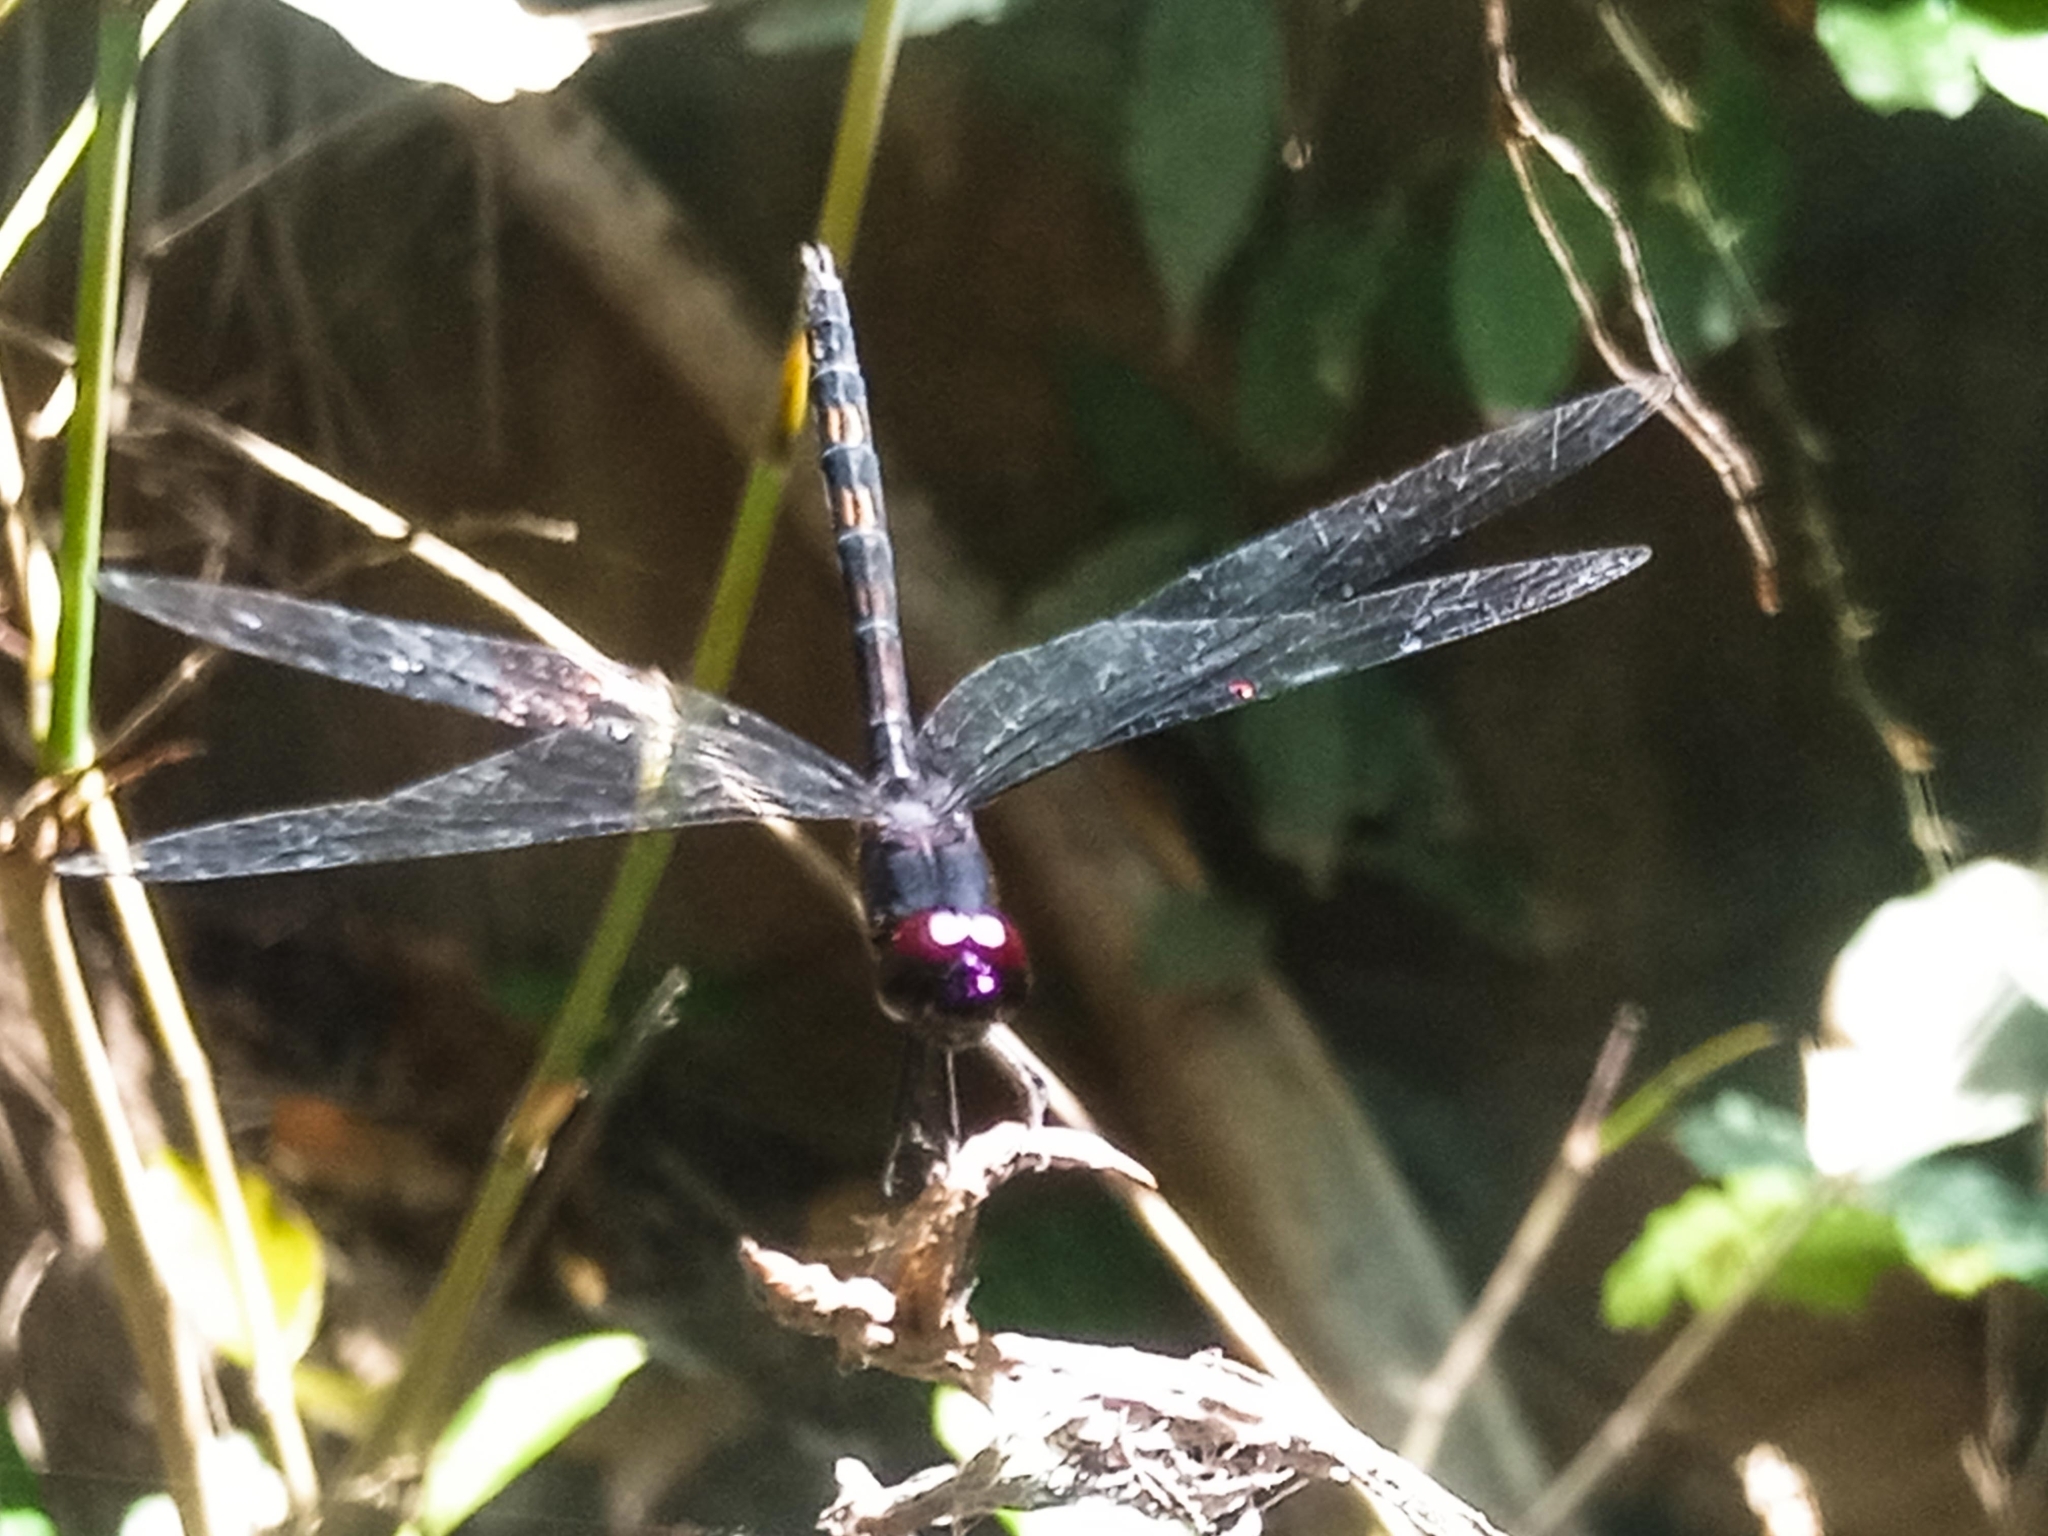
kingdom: Animalia
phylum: Arthropoda
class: Insecta
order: Odonata
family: Libellulidae
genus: Trithemis
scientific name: Trithemis dichroa
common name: Black dropwing
